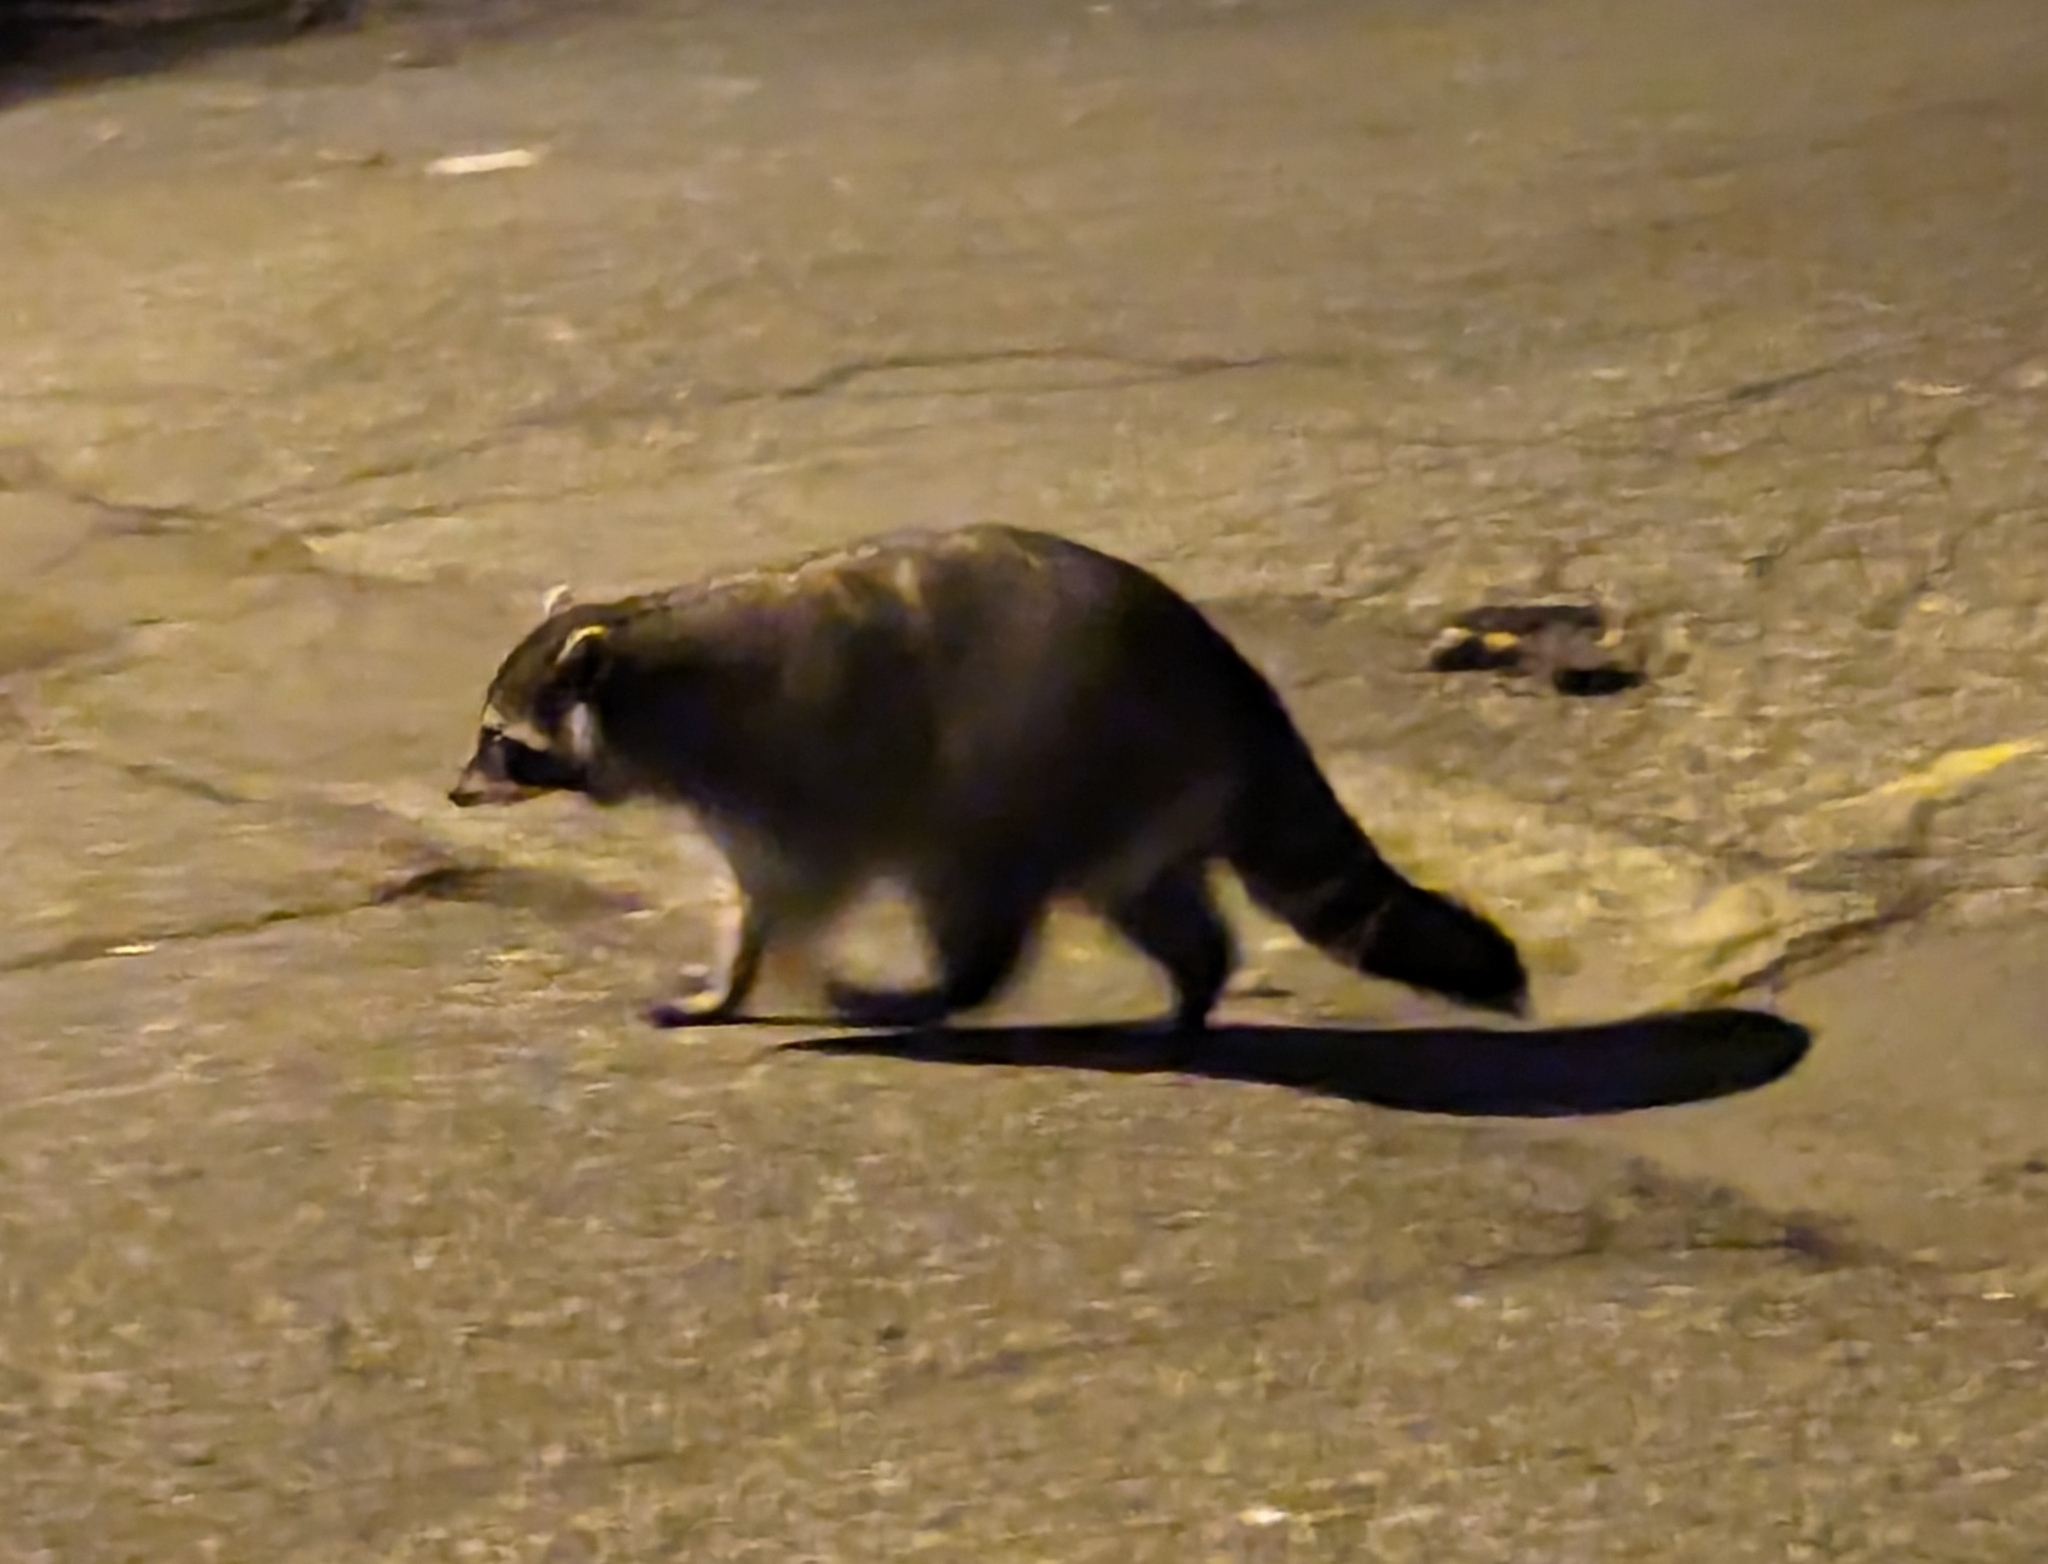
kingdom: Animalia
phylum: Chordata
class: Mammalia
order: Carnivora
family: Procyonidae
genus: Procyon
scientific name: Procyon lotor
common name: Raccoon
